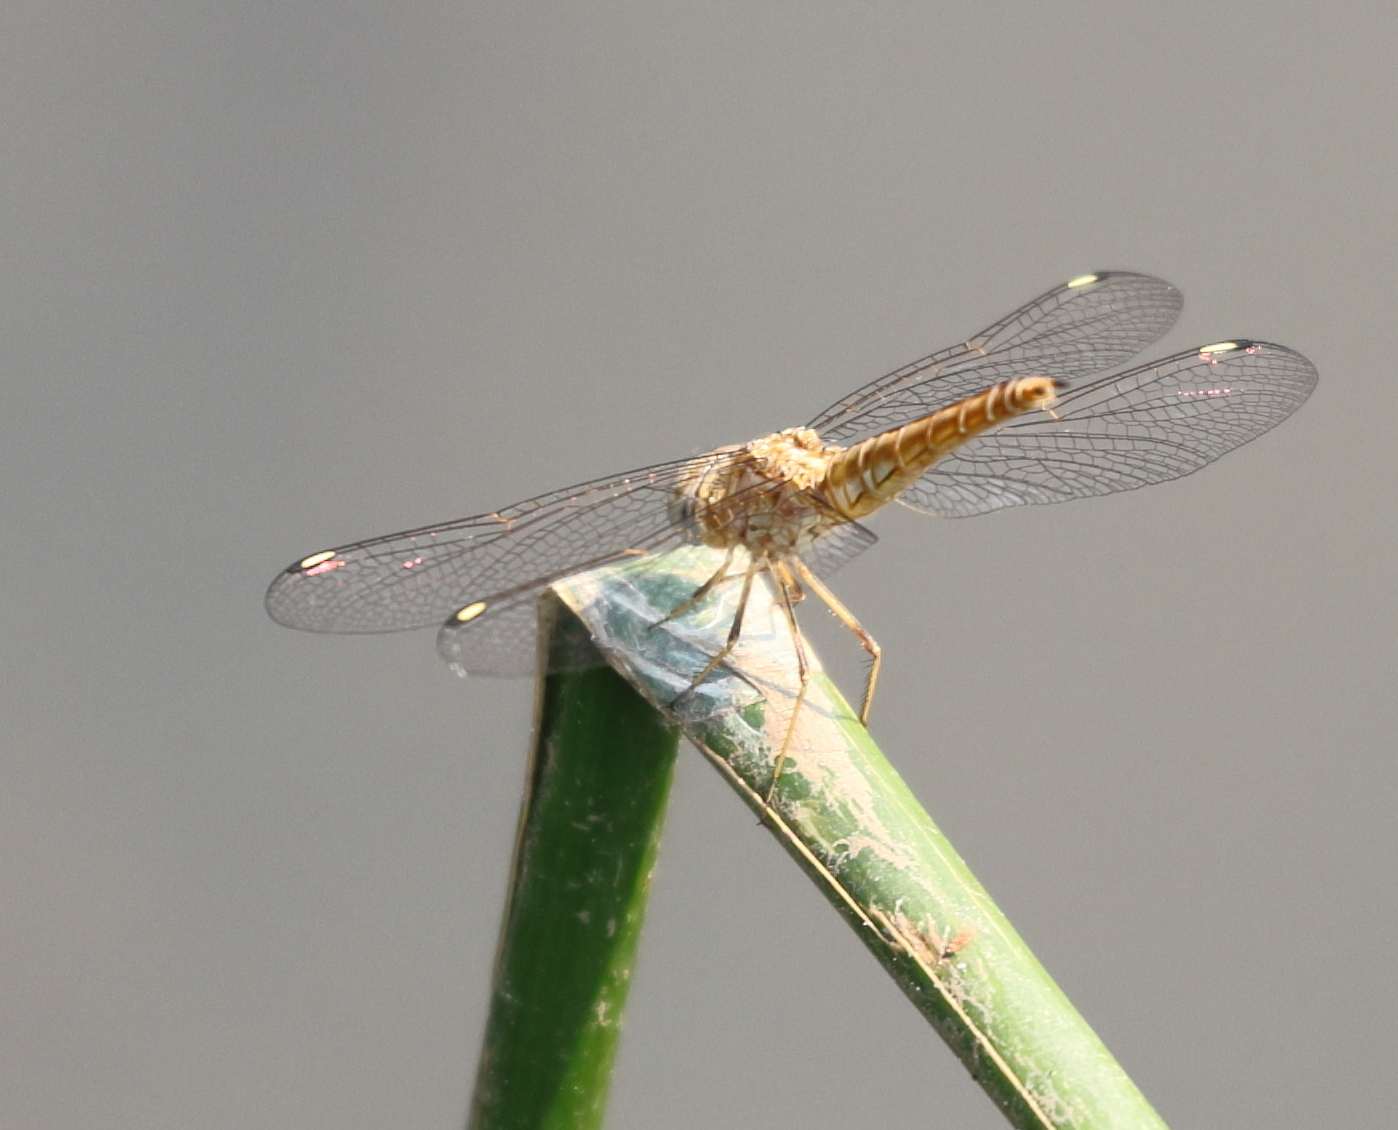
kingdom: Animalia
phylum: Arthropoda
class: Insecta
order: Odonata
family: Libellulidae
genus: Brachythemis
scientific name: Brachythemis leucosticta
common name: Banded groundling
